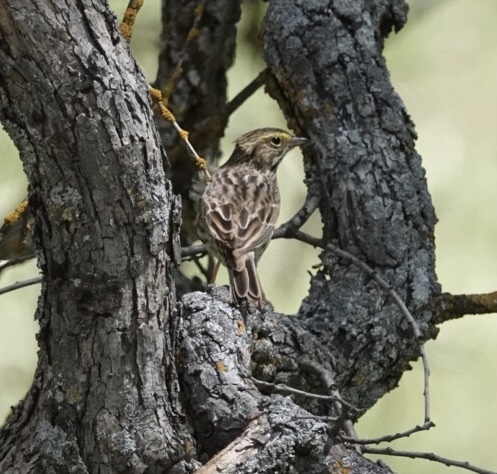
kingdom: Animalia
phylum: Chordata
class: Aves
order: Passeriformes
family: Passerellidae
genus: Passerculus
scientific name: Passerculus sandwichensis
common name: Savannah sparrow
